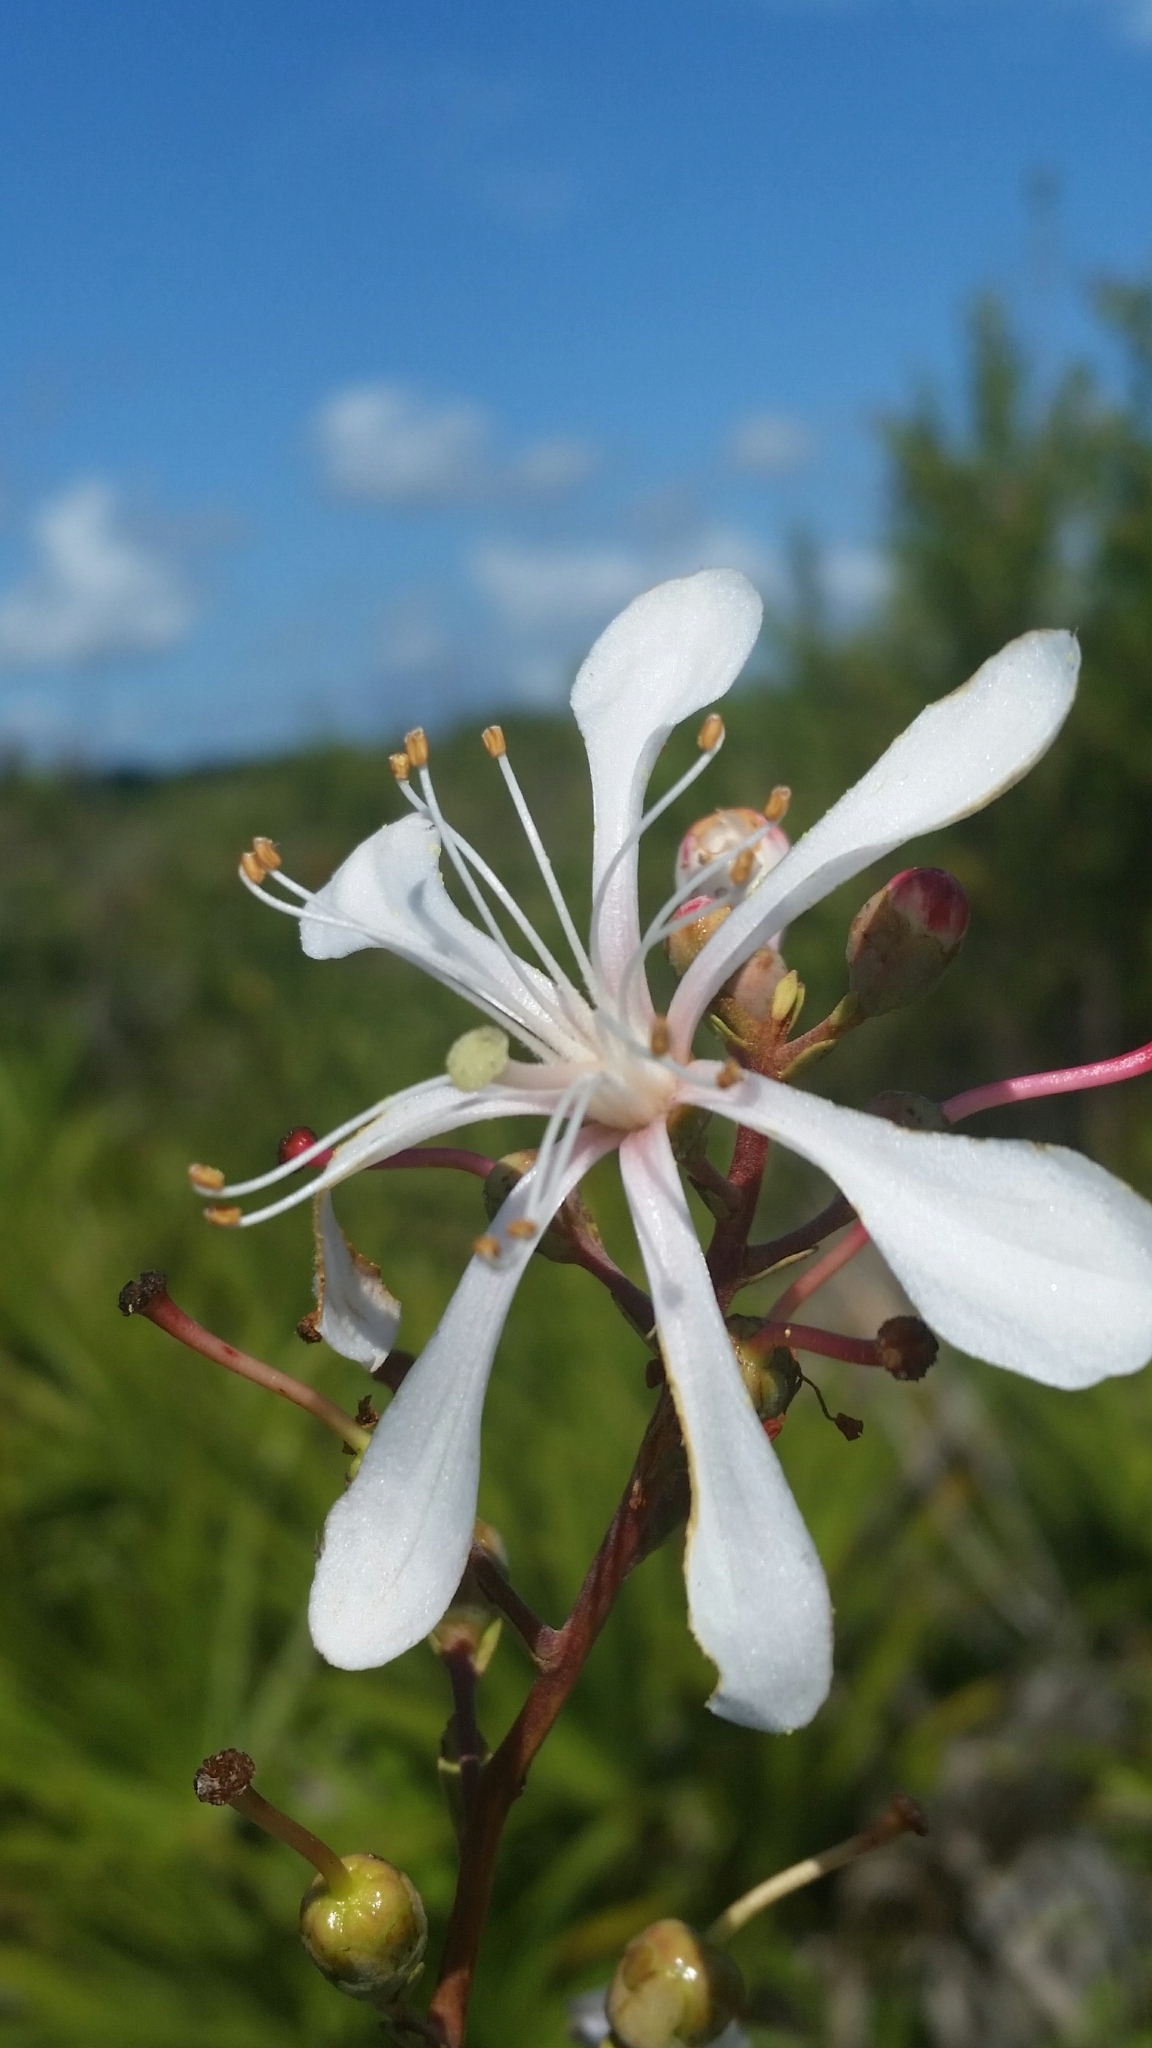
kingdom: Plantae
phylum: Tracheophyta
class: Magnoliopsida
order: Ericales
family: Ericaceae
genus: Bejaria
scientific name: Bejaria racemosa
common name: Tarflower
